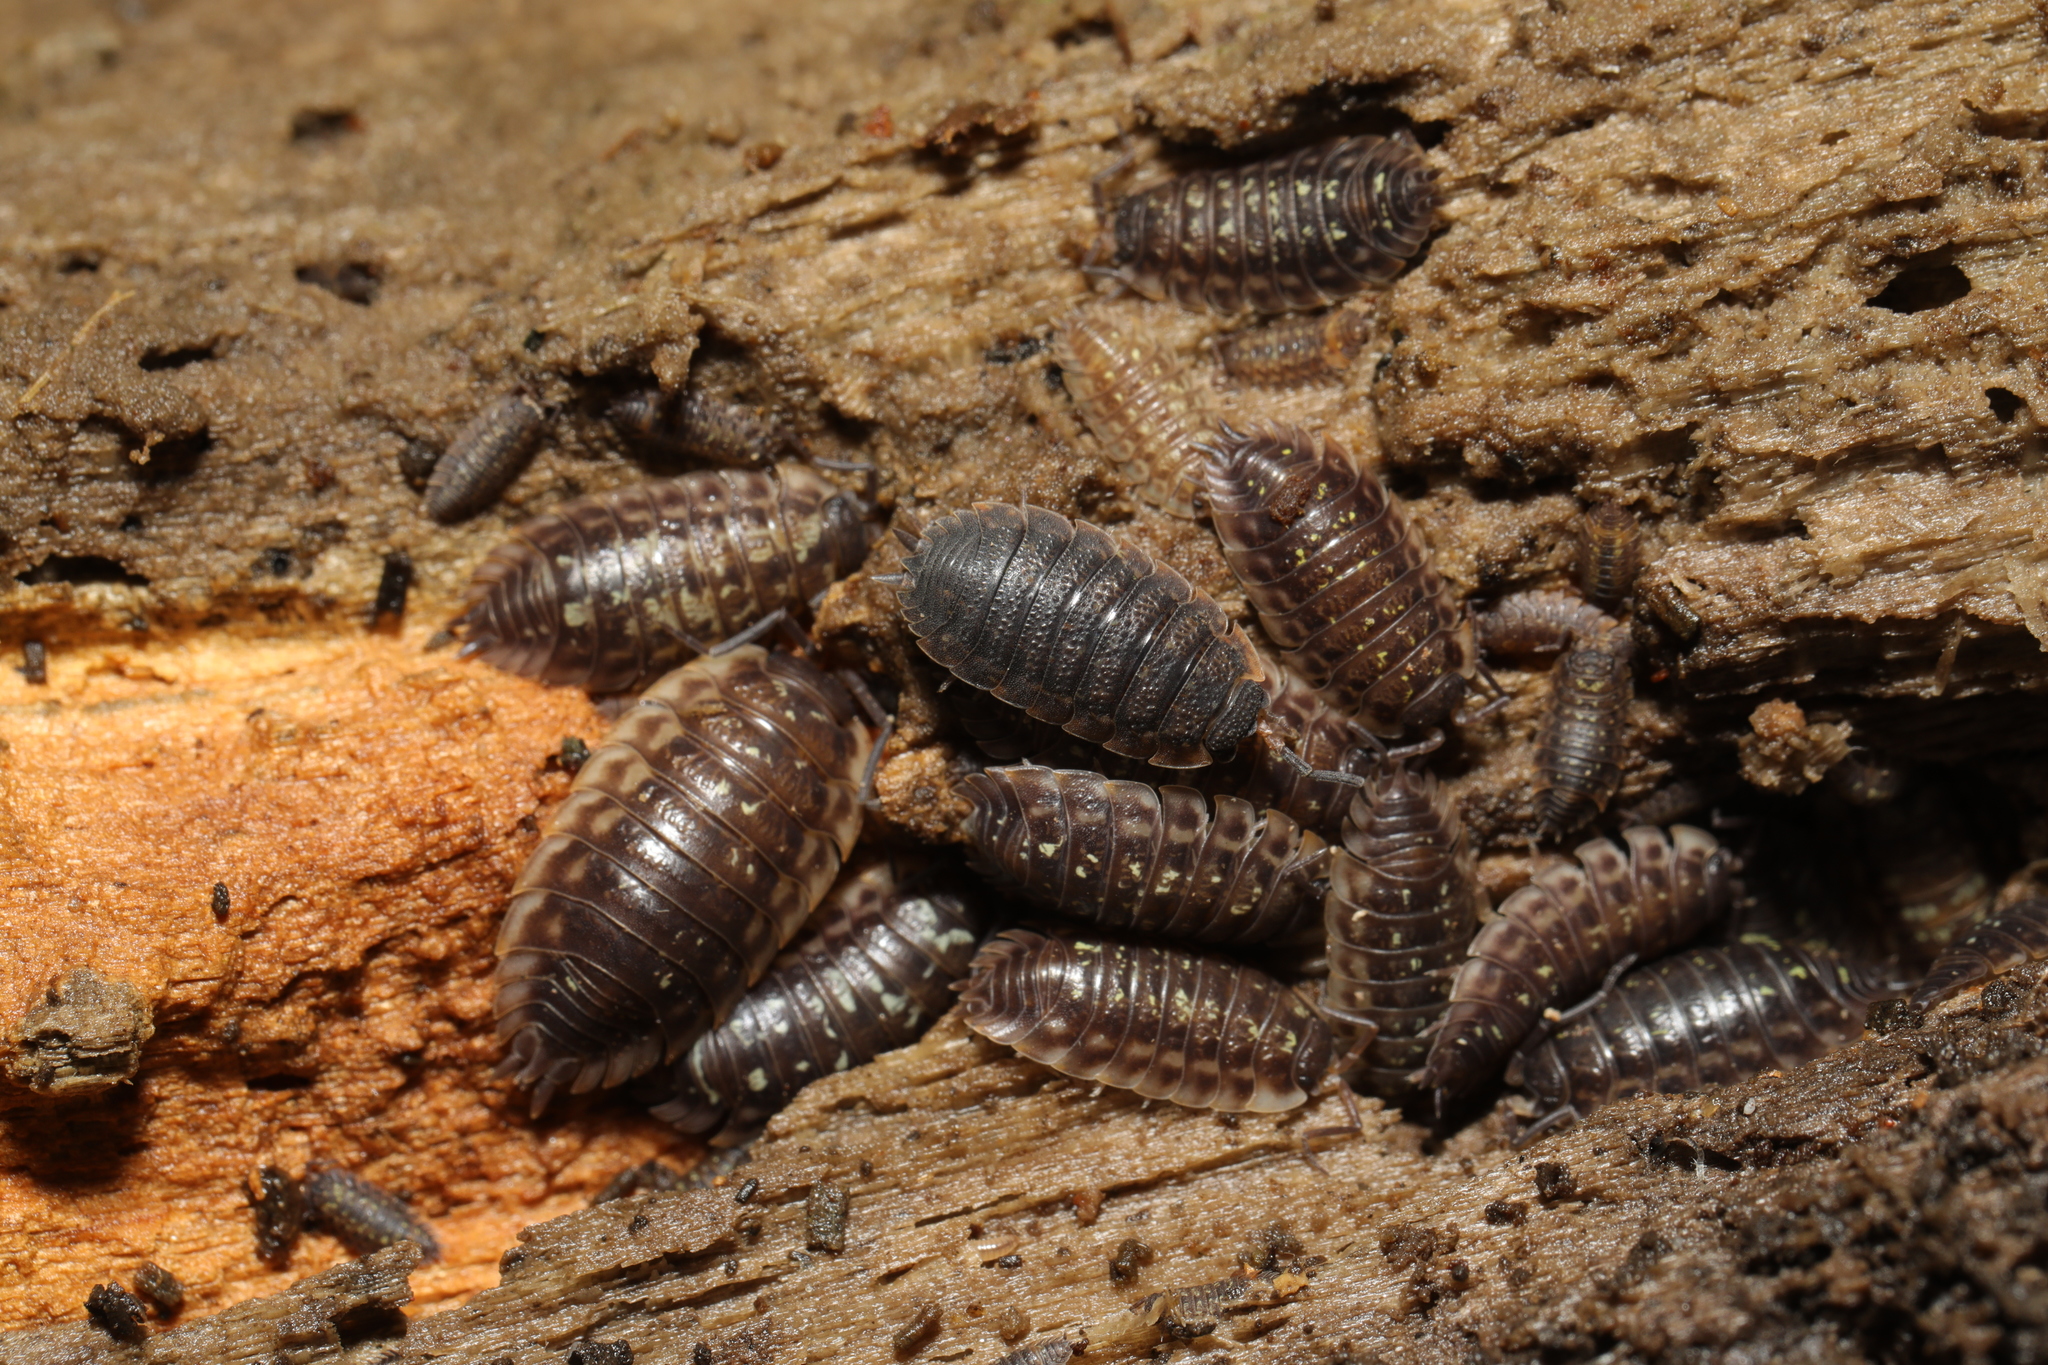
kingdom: Animalia
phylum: Arthropoda
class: Malacostraca
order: Isopoda
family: Porcellionidae
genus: Porcellio
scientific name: Porcellio scaber
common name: Common rough woodlouse
